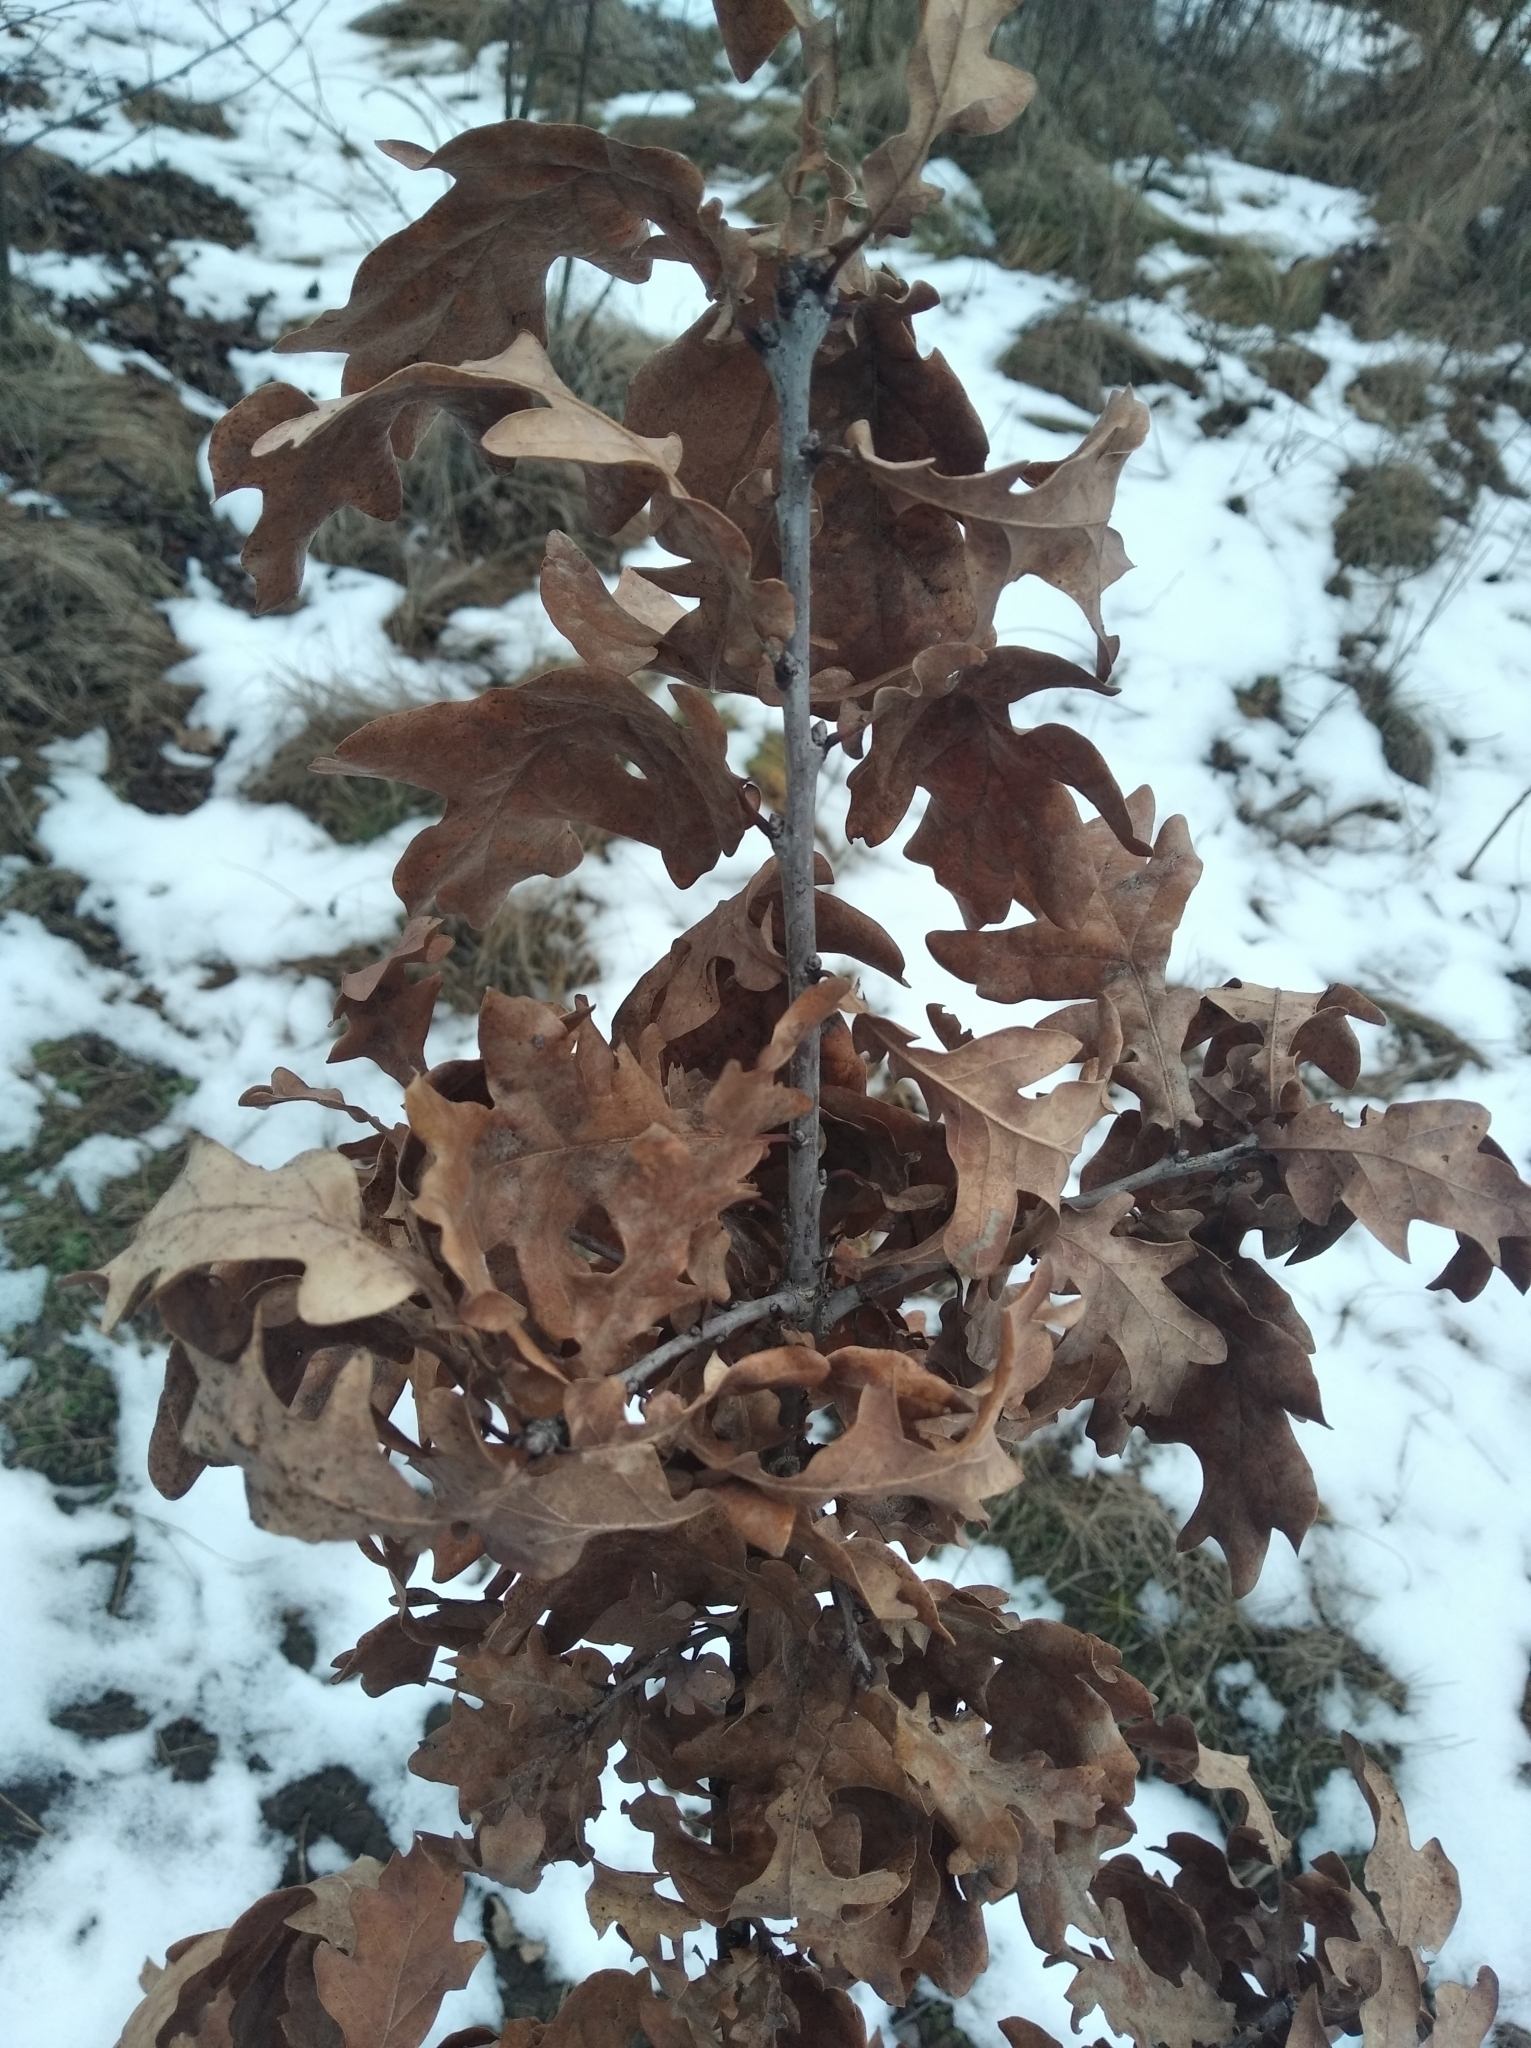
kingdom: Plantae
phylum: Tracheophyta
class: Magnoliopsida
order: Fagales
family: Fagaceae
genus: Quercus
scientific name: Quercus robur
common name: Pedunculate oak
